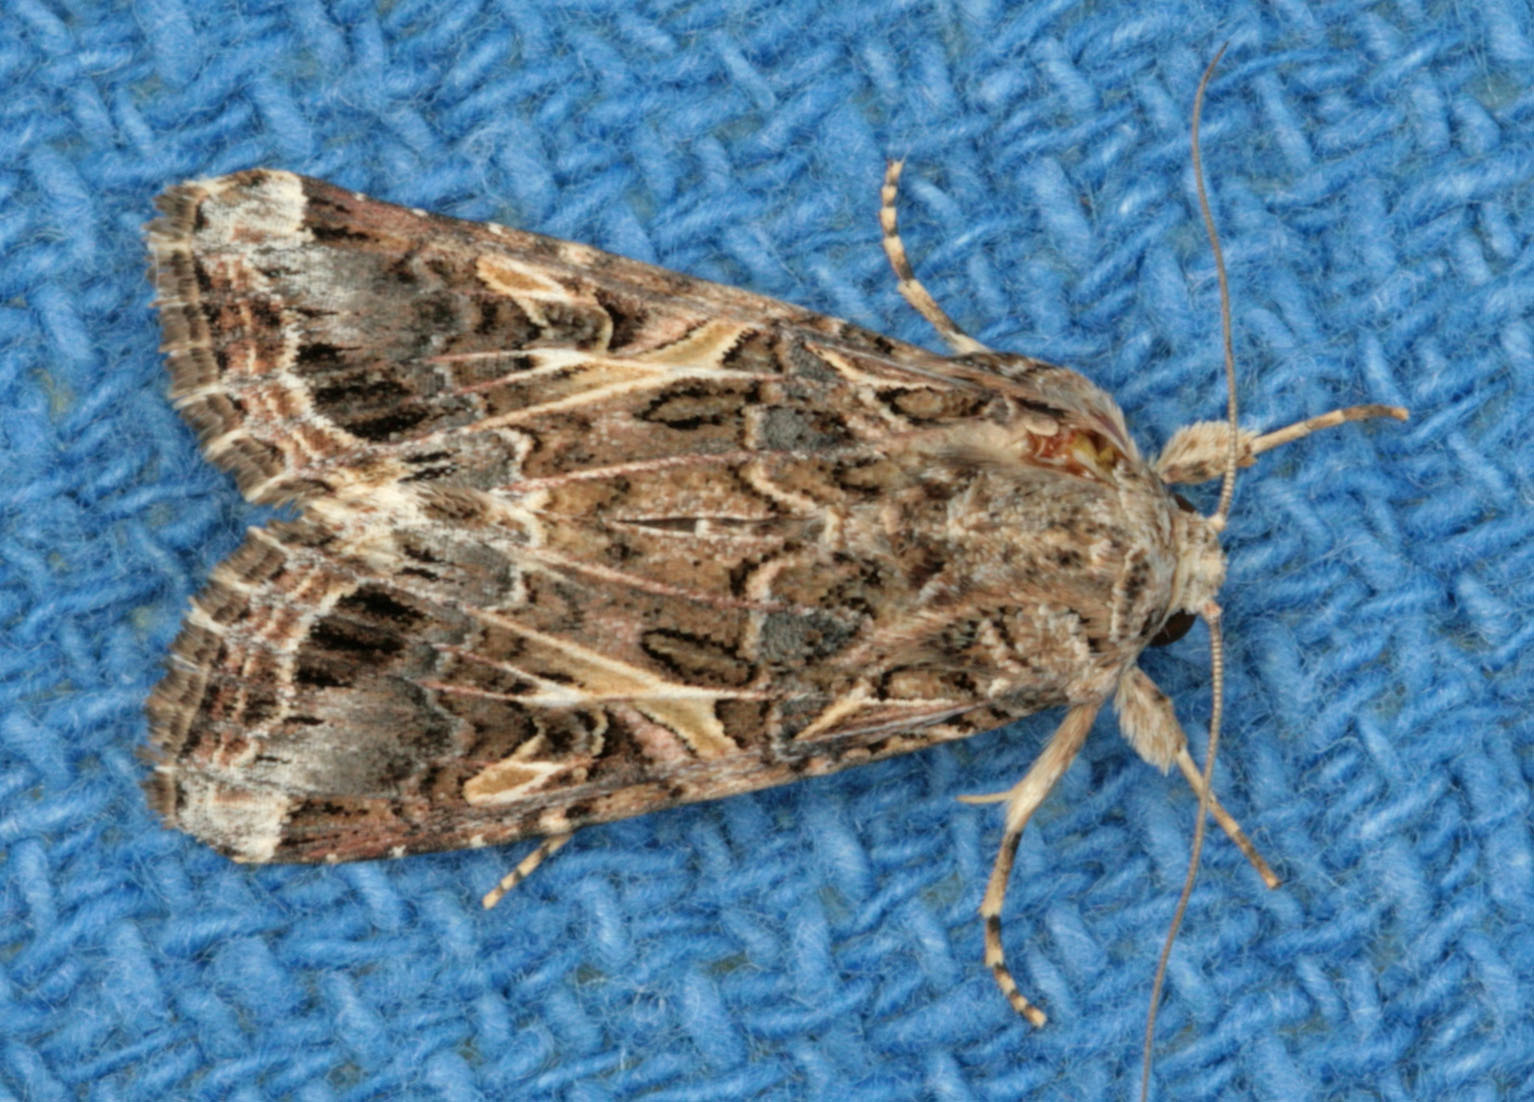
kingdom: Animalia
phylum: Arthropoda
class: Insecta
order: Lepidoptera
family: Noctuidae
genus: Spodoptera
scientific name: Spodoptera ornithogalli
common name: Yellow-striped armyworm
